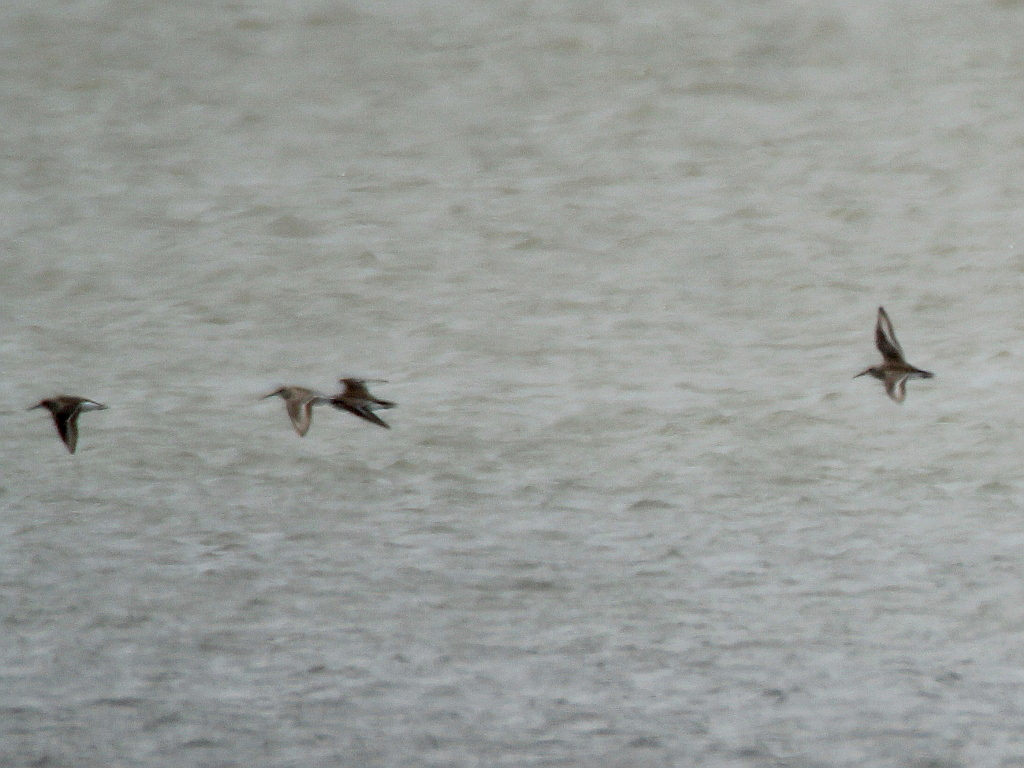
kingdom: Animalia
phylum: Chordata
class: Aves
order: Charadriiformes
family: Scolopacidae
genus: Calidris
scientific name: Calidris alpina
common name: Dunlin
